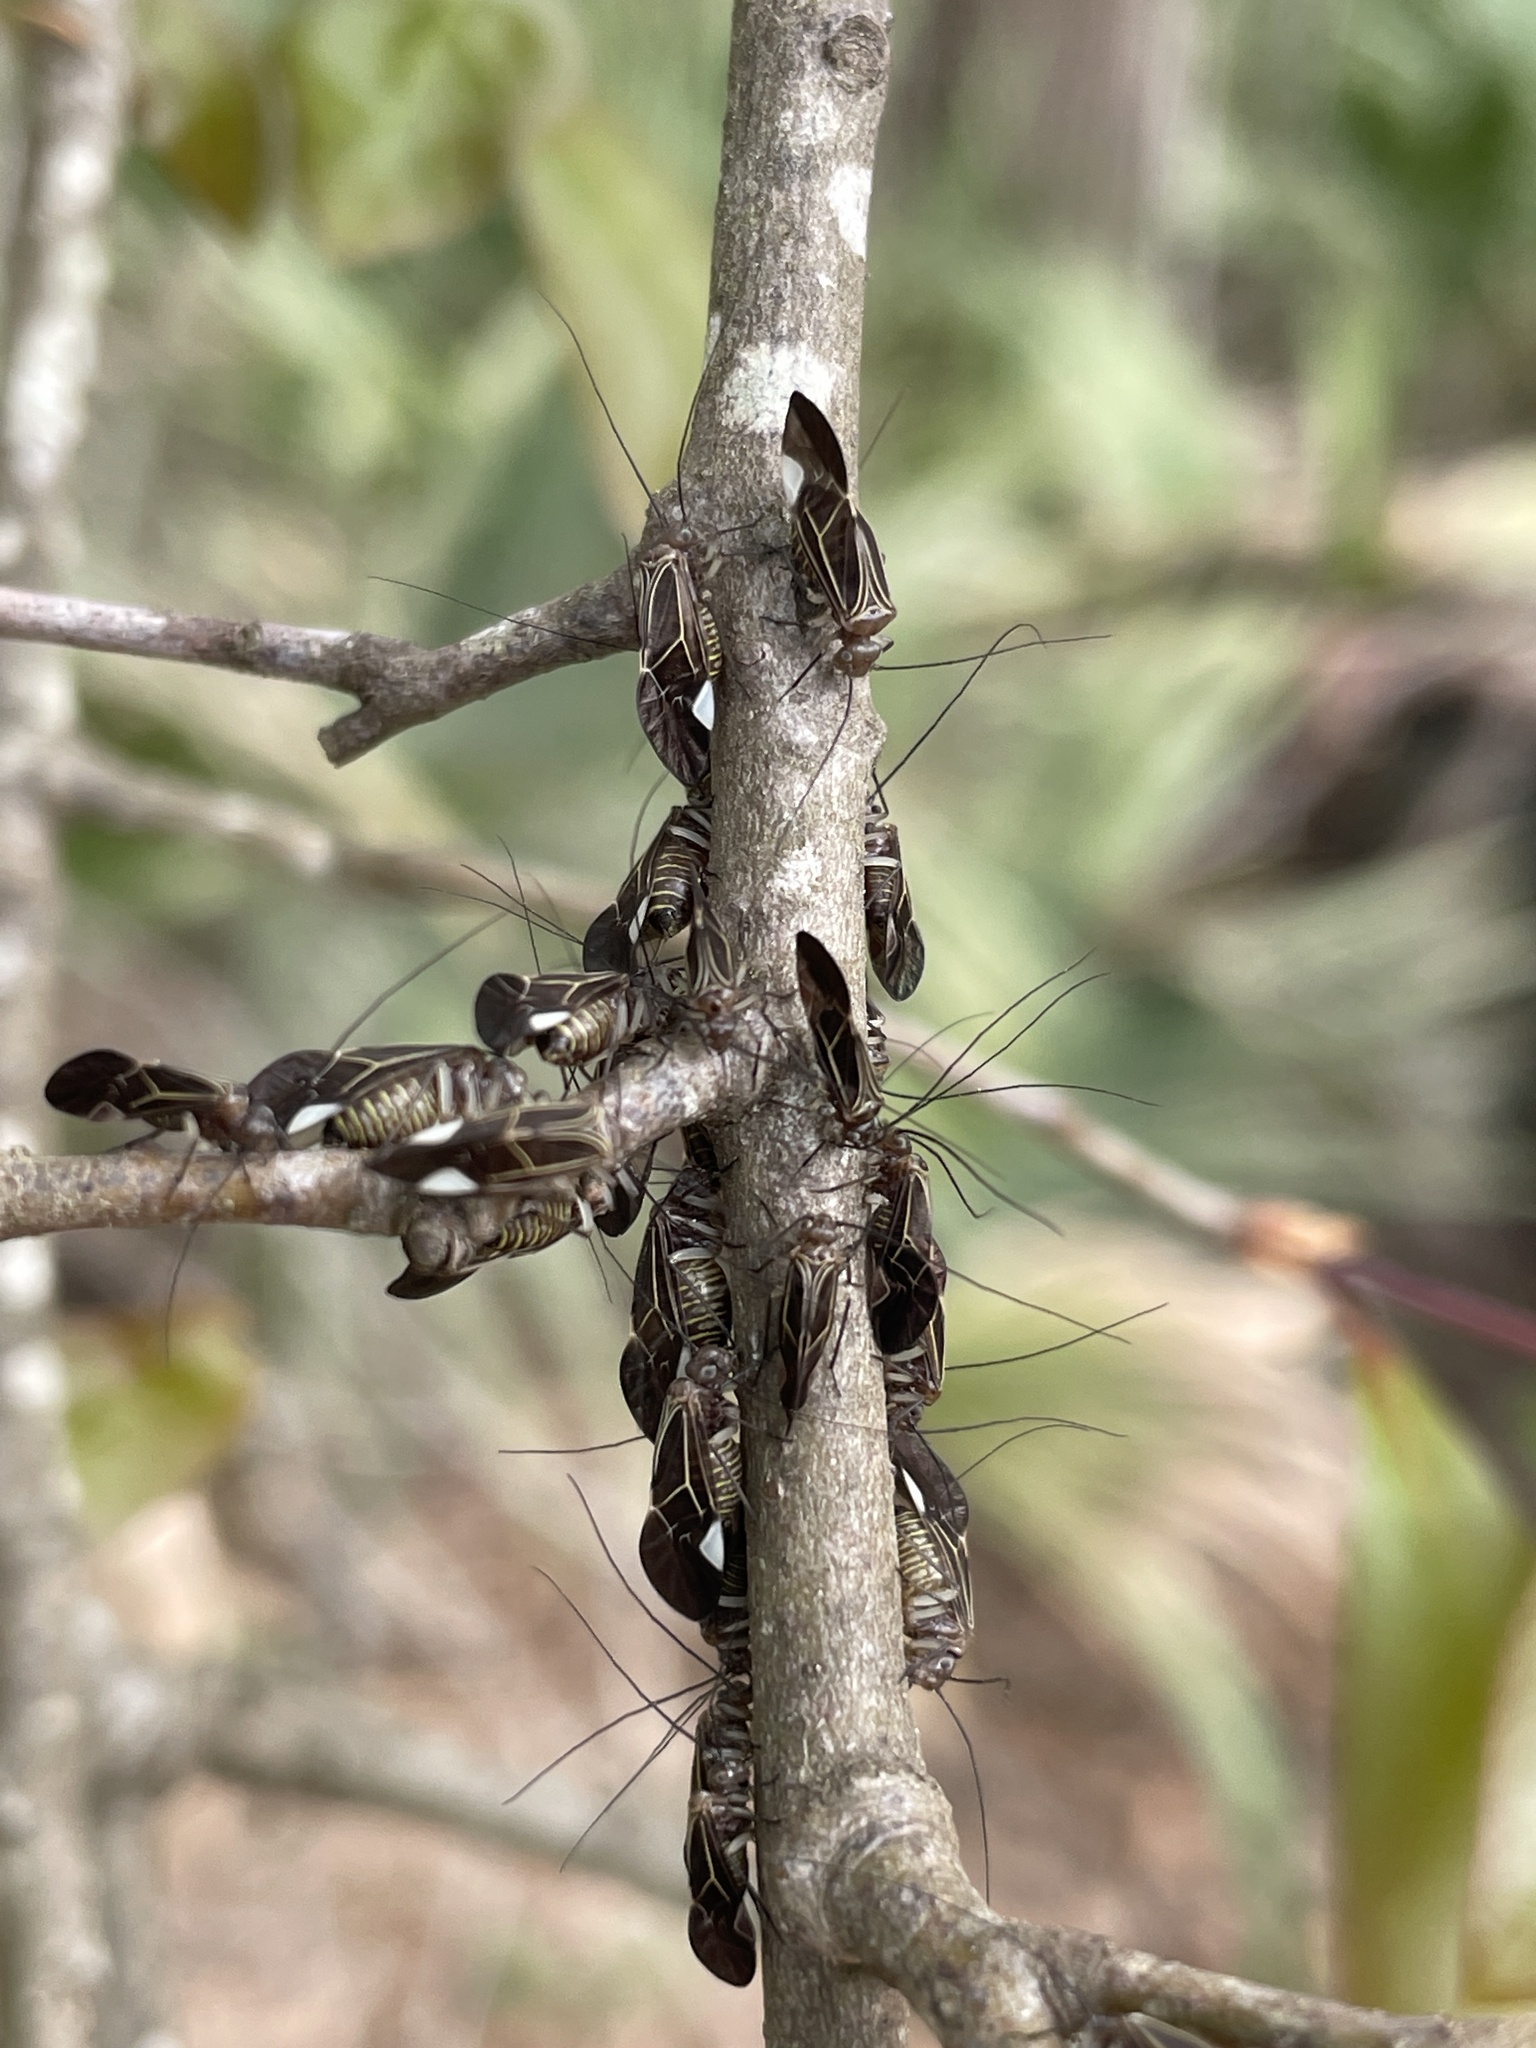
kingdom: Animalia
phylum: Arthropoda
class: Insecta
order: Psocodea
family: Psocidae
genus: Cerastipsocus
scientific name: Cerastipsocus venosus
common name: Tree cattle
